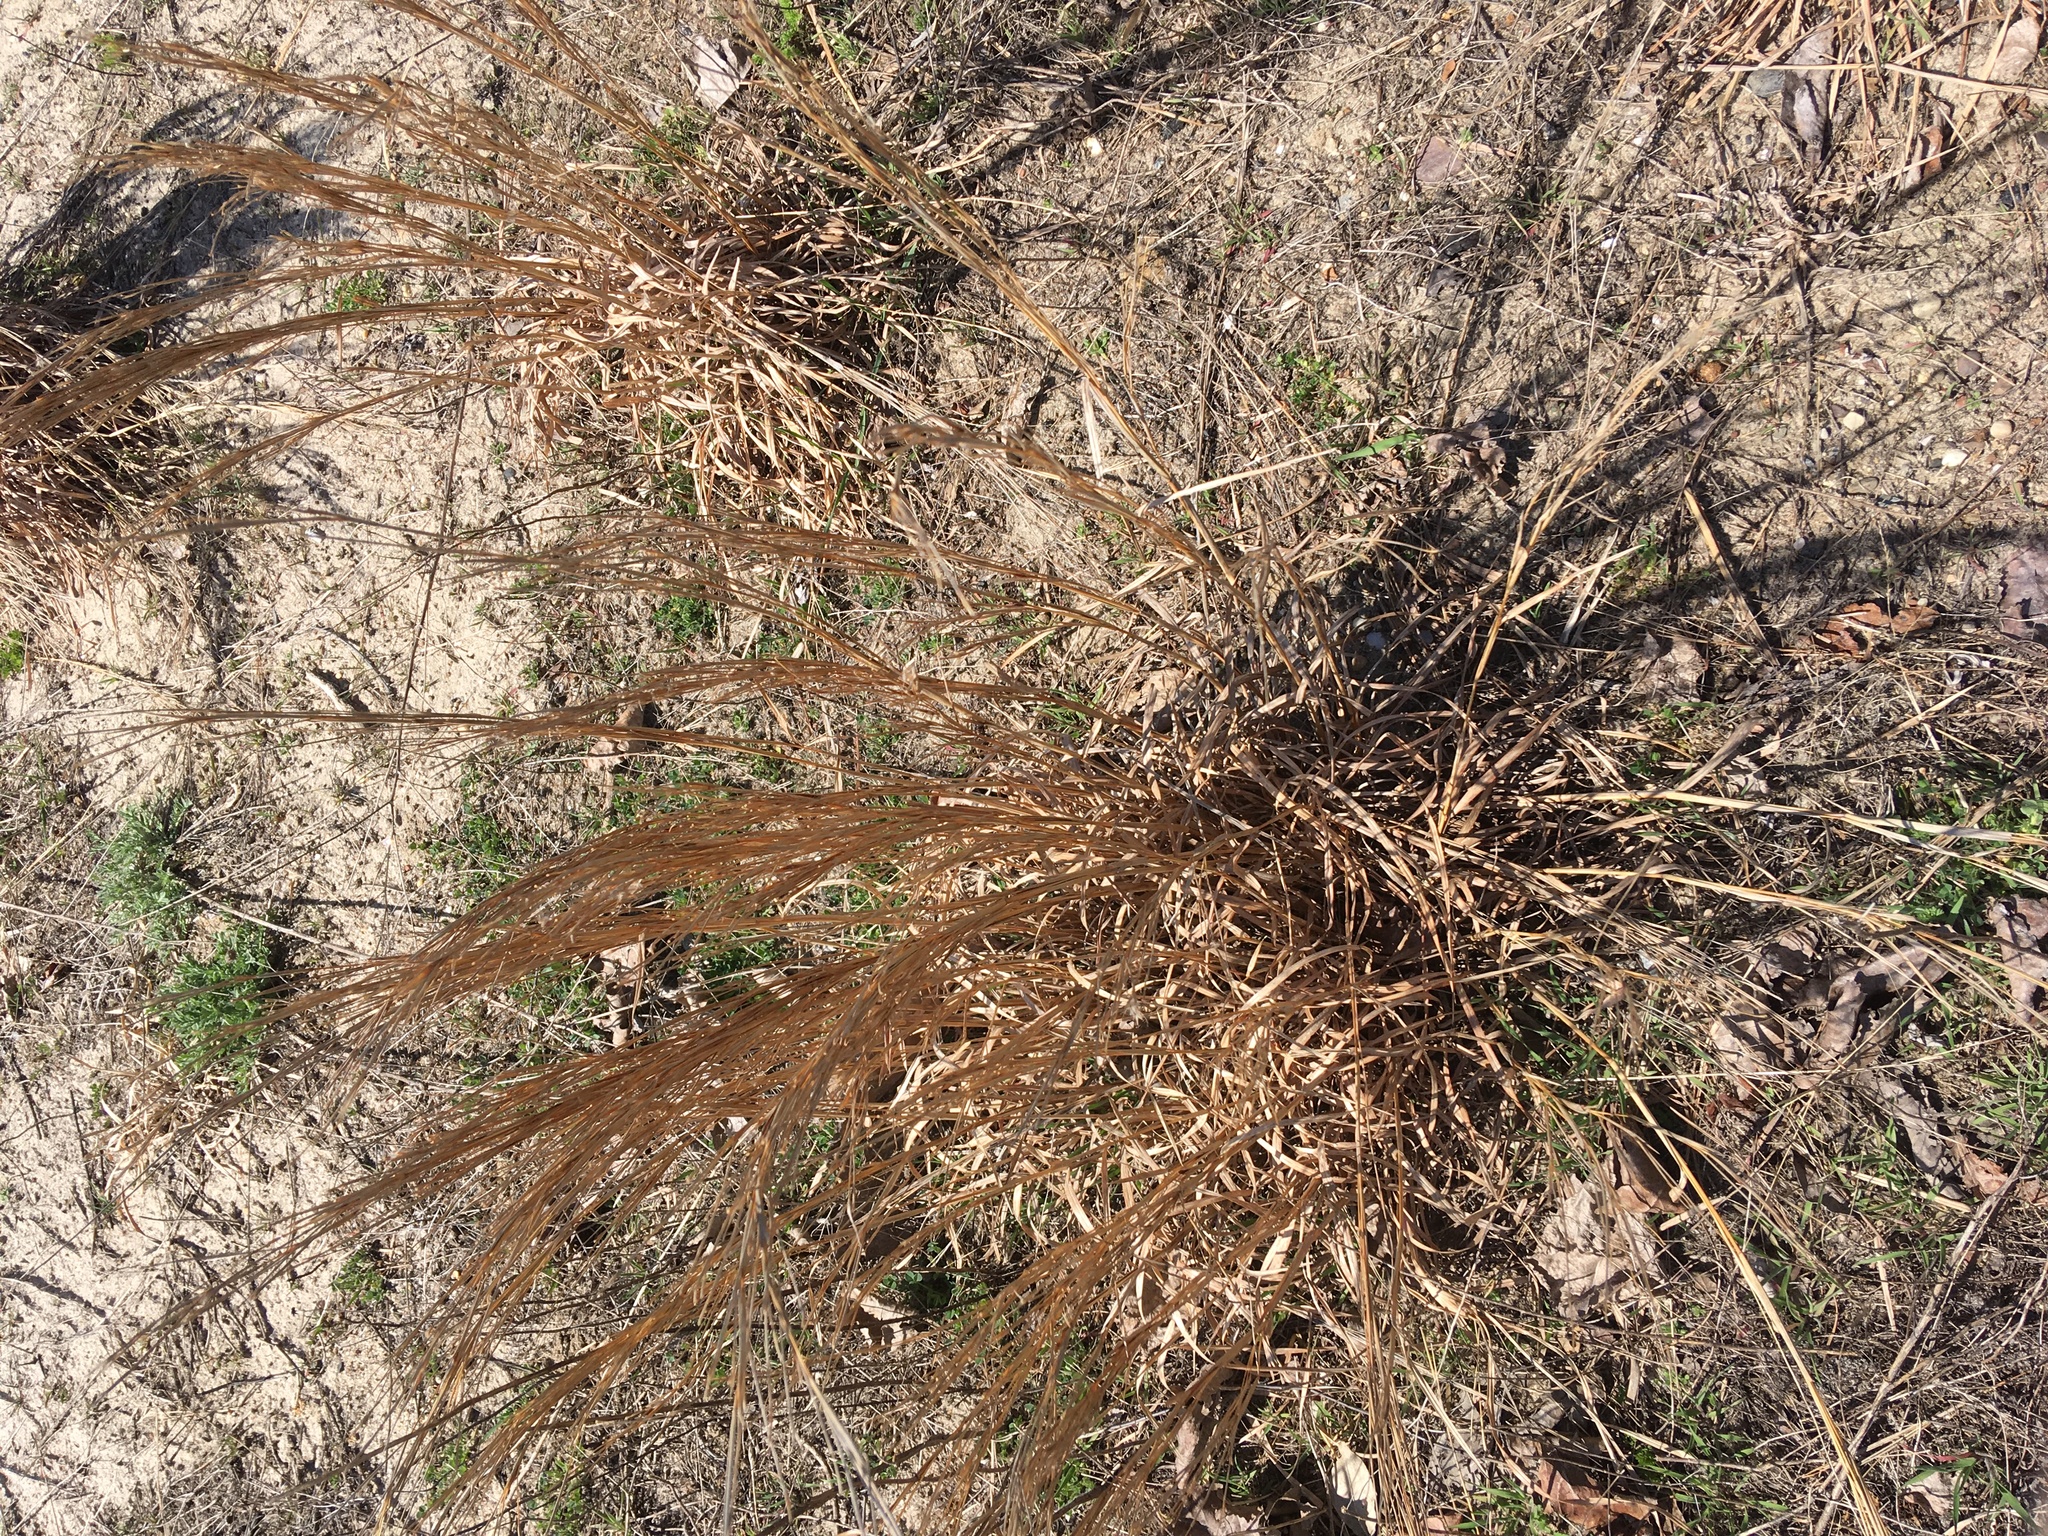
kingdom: Plantae
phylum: Tracheophyta
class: Liliopsida
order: Poales
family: Poaceae
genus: Schizachyrium
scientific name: Schizachyrium scoparium
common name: Little bluestem
